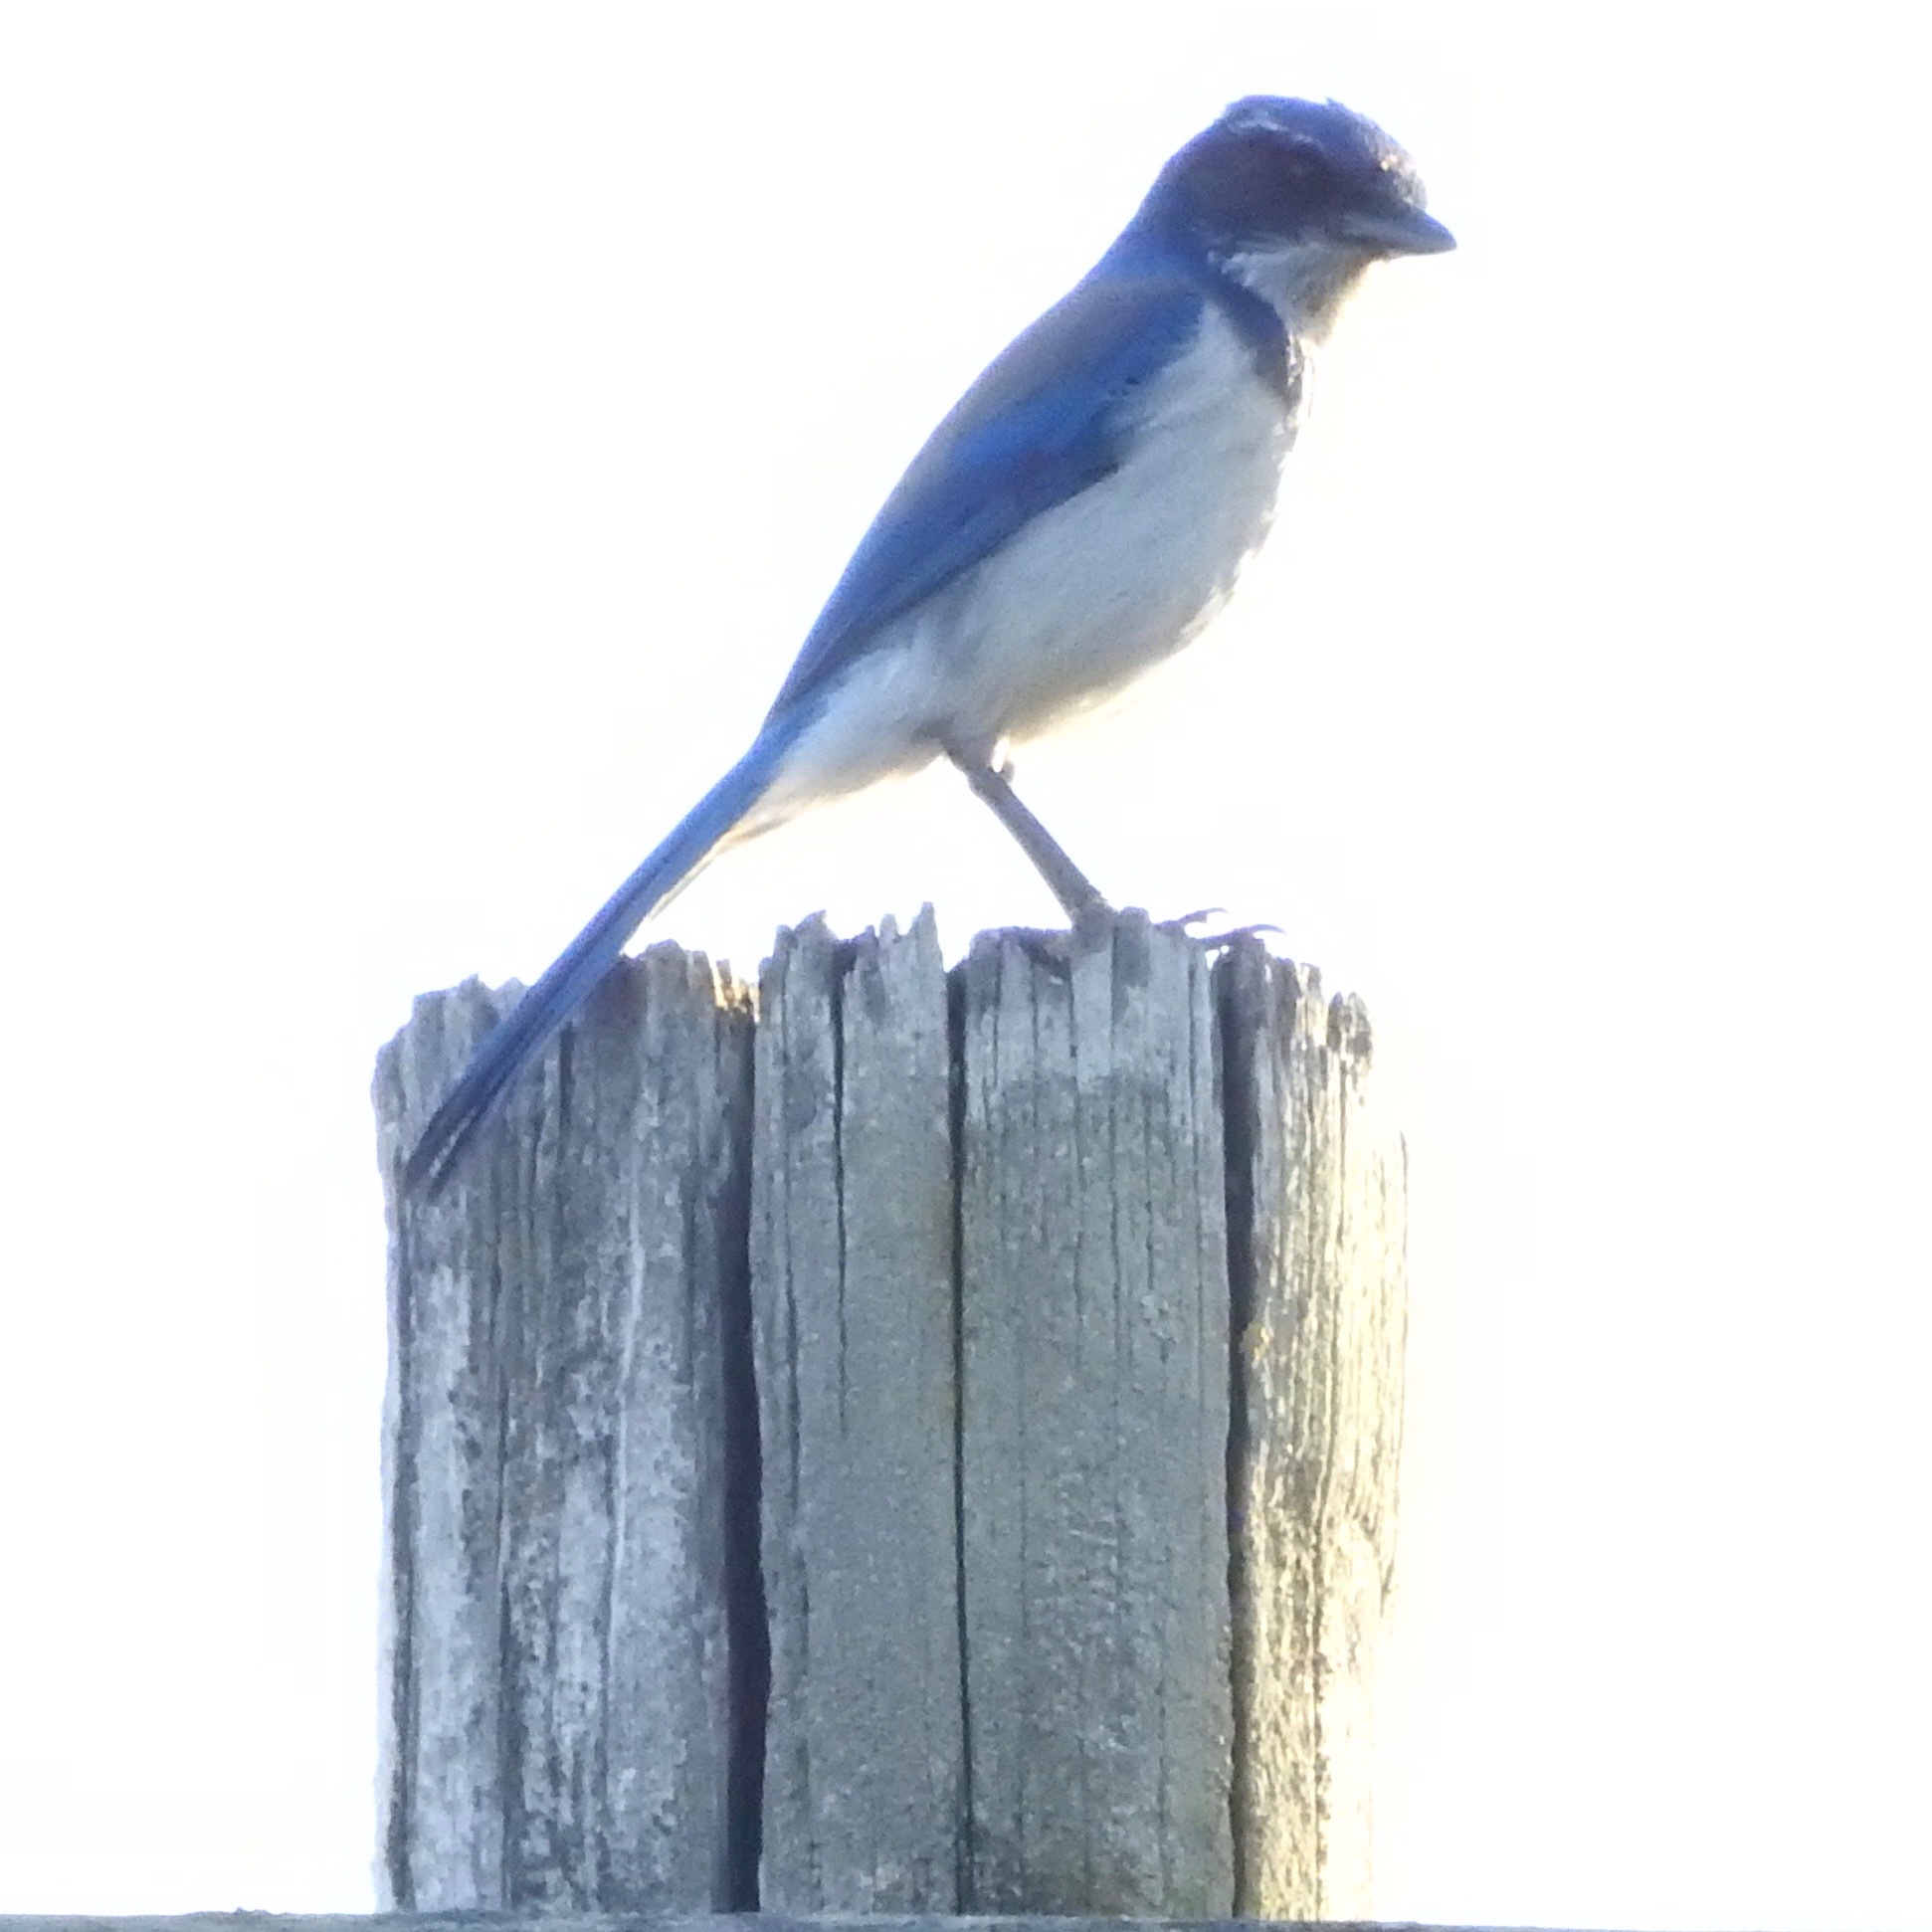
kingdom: Animalia
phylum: Chordata
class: Aves
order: Passeriformes
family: Corvidae
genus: Aphelocoma
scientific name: Aphelocoma californica
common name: California scrub-jay
